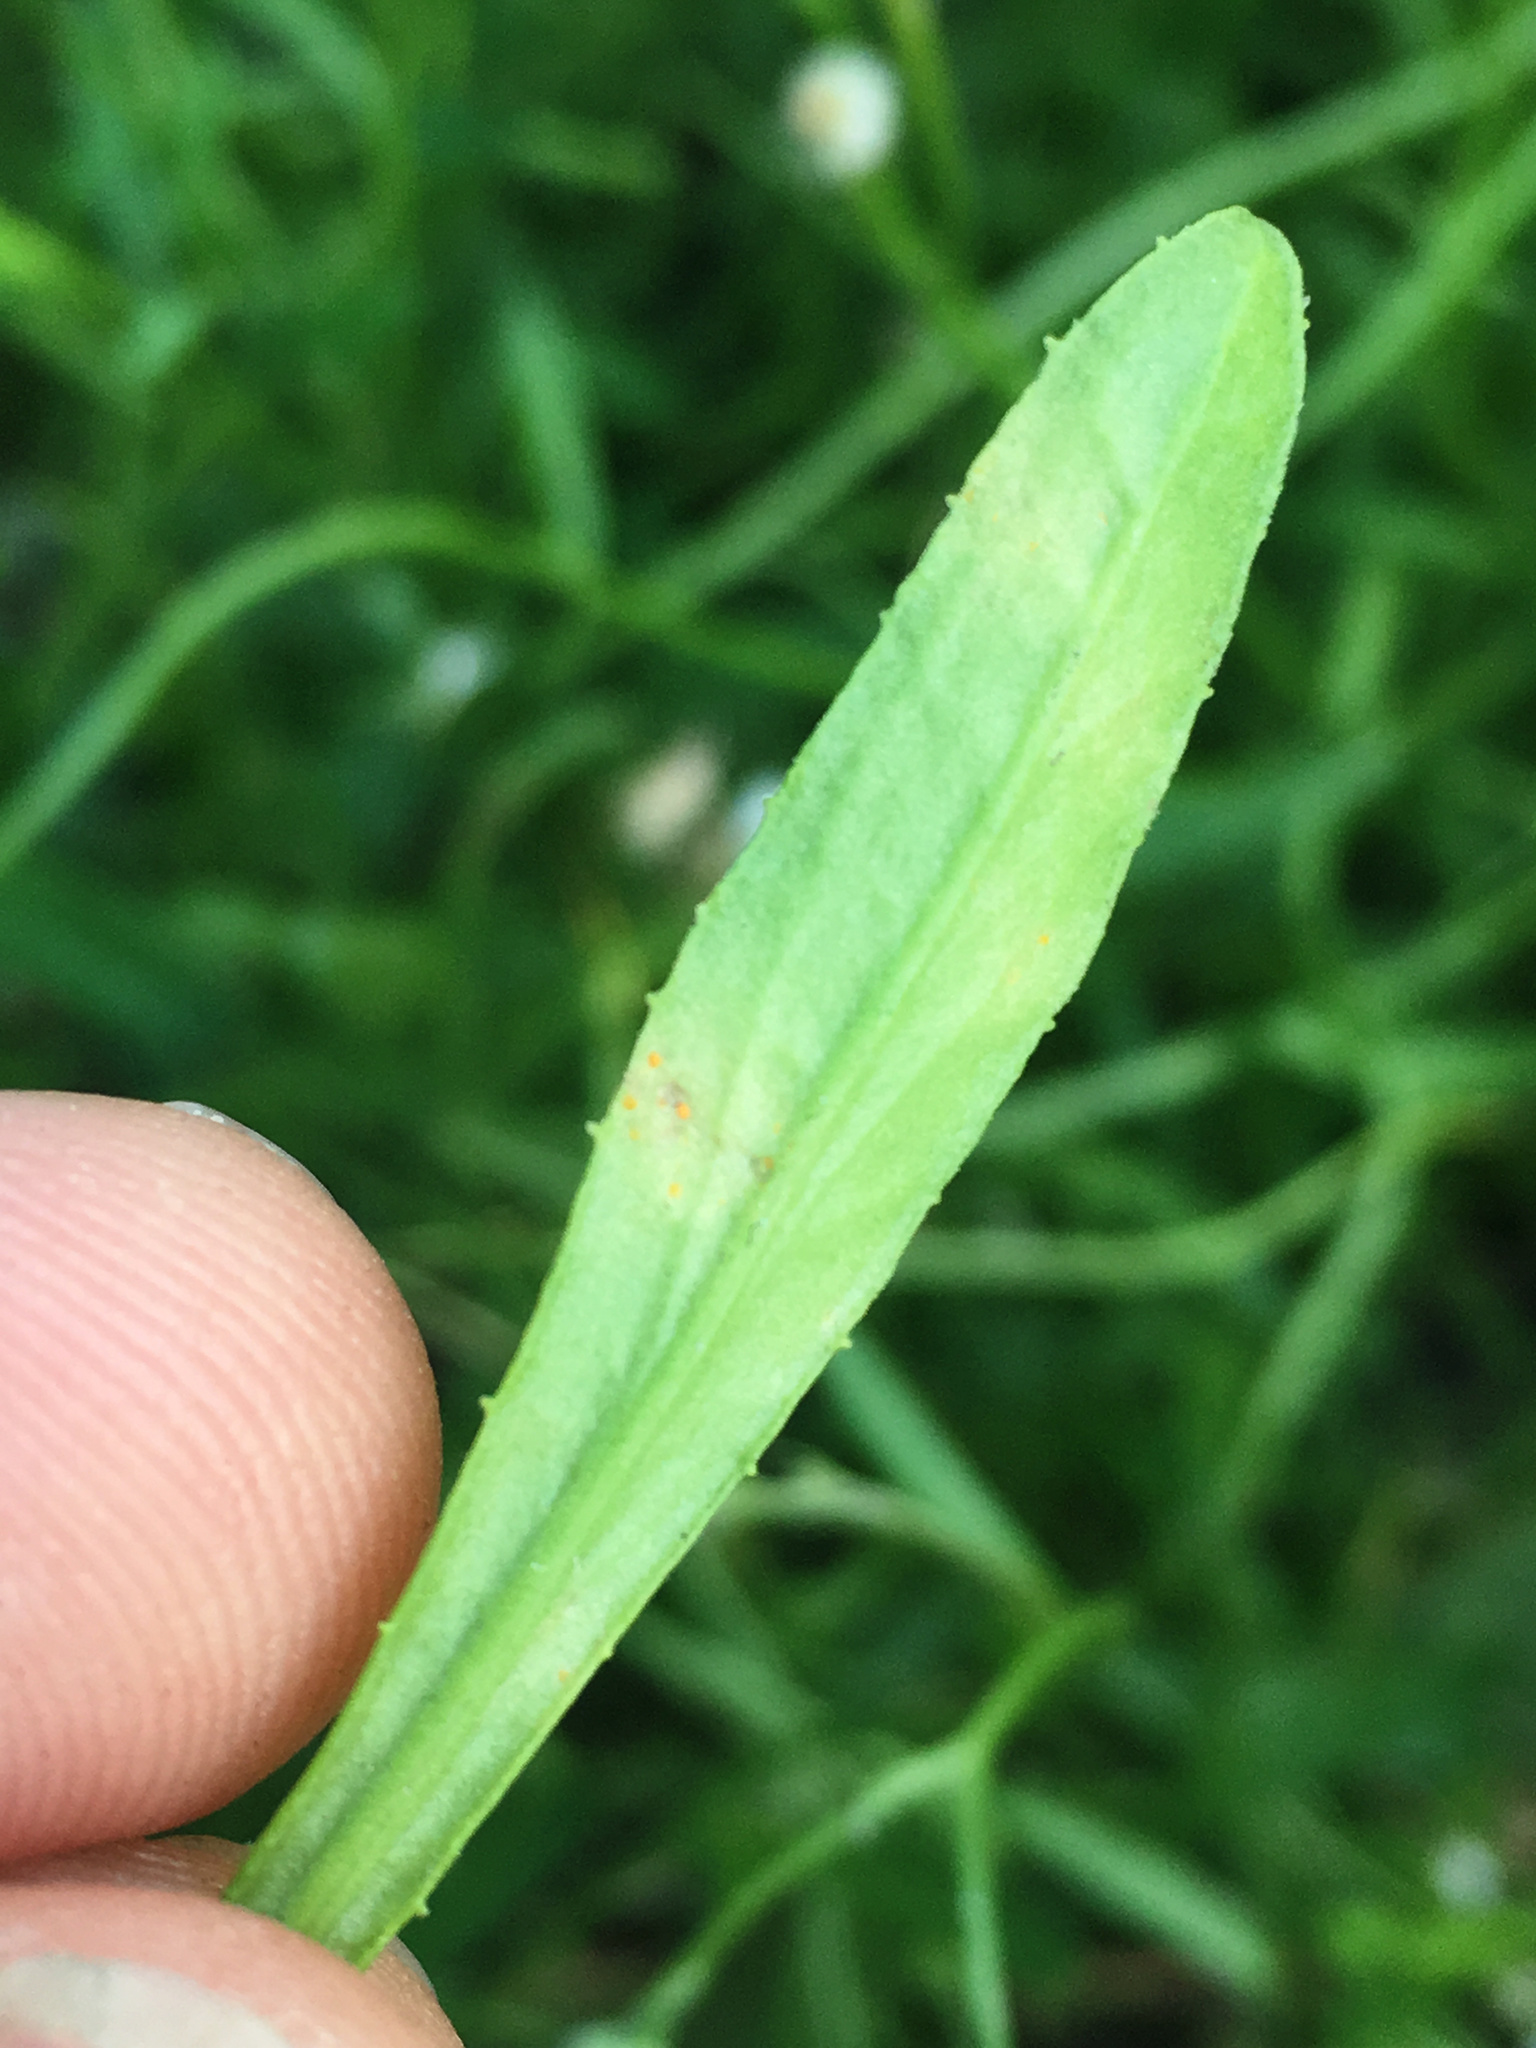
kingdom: Fungi
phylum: Basidiomycota
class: Pucciniomycetes
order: Pucciniales
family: Coleosporiaceae
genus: Coleosporium
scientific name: Coleosporium tussilaginis
